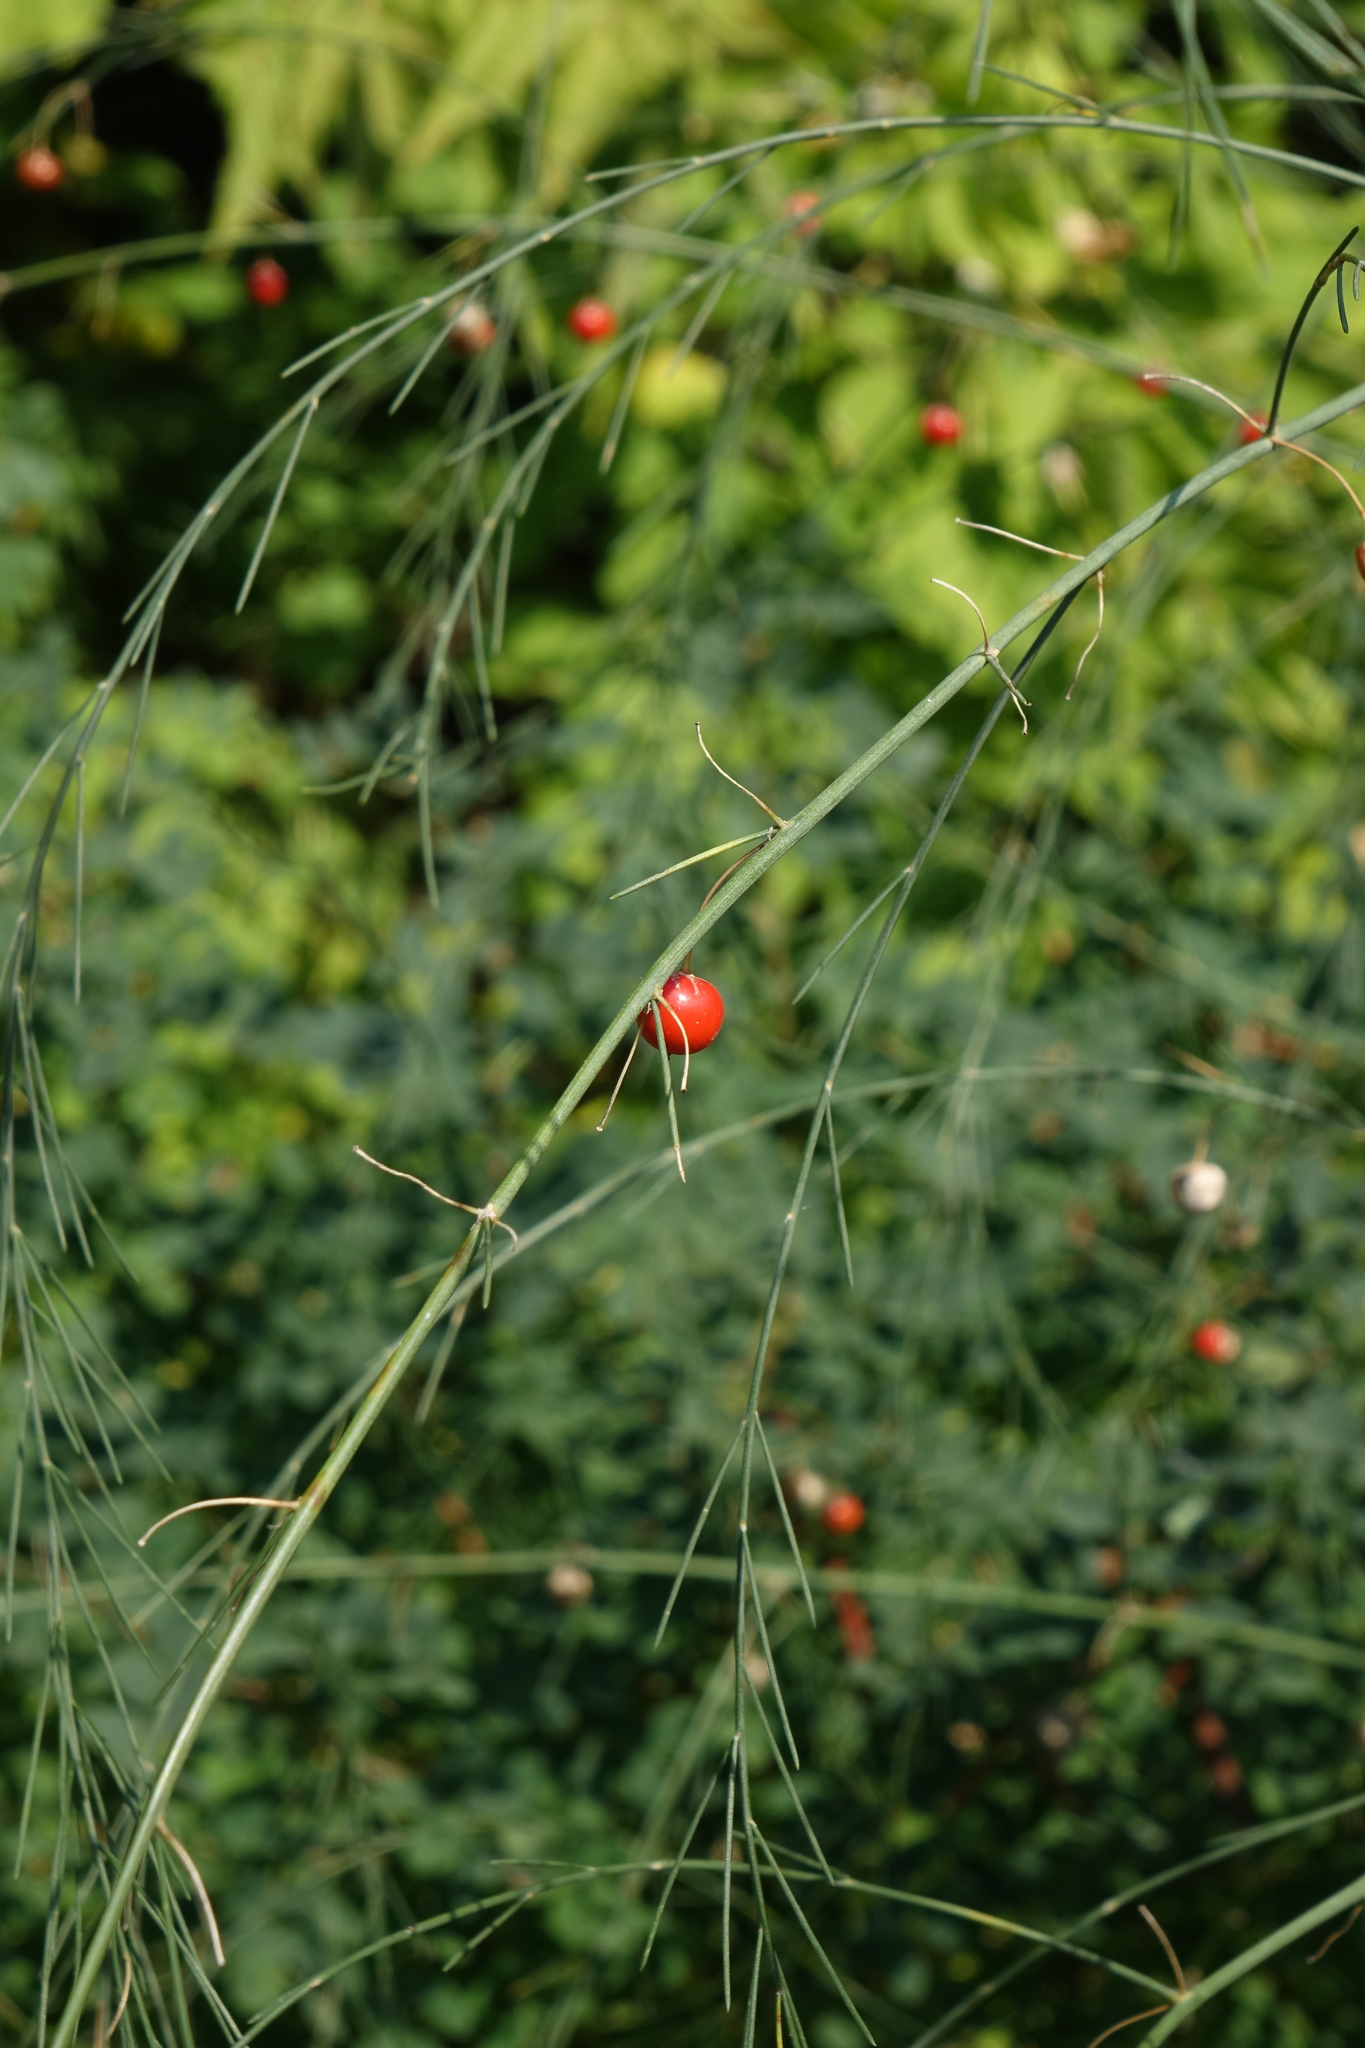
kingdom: Plantae
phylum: Tracheophyta
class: Liliopsida
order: Asparagales
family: Asparagaceae
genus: Asparagus
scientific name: Asparagus officinalis
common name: Garden asparagus
